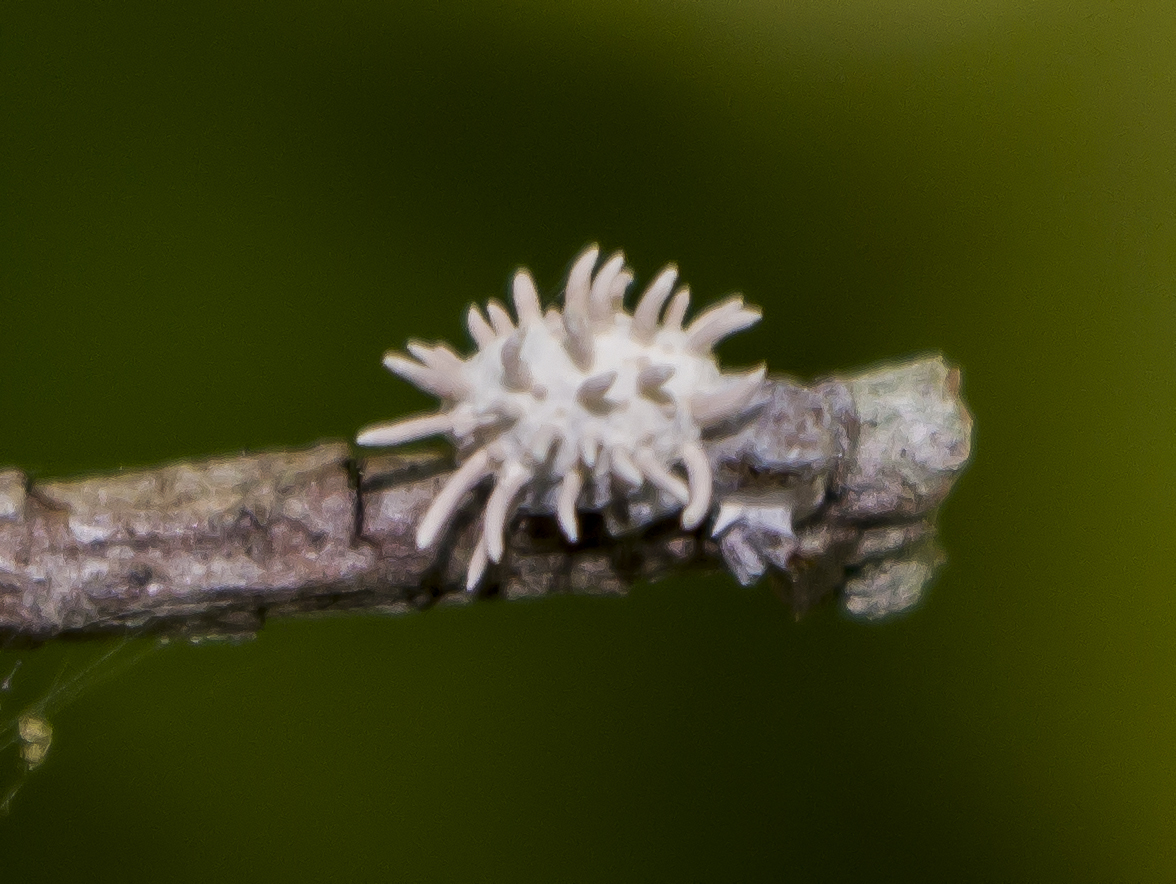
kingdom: Fungi
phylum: Ascomycota
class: Sordariomycetes
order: Hypocreales
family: Cordycipitaceae
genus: Gibellula
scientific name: Gibellula arachnophila
